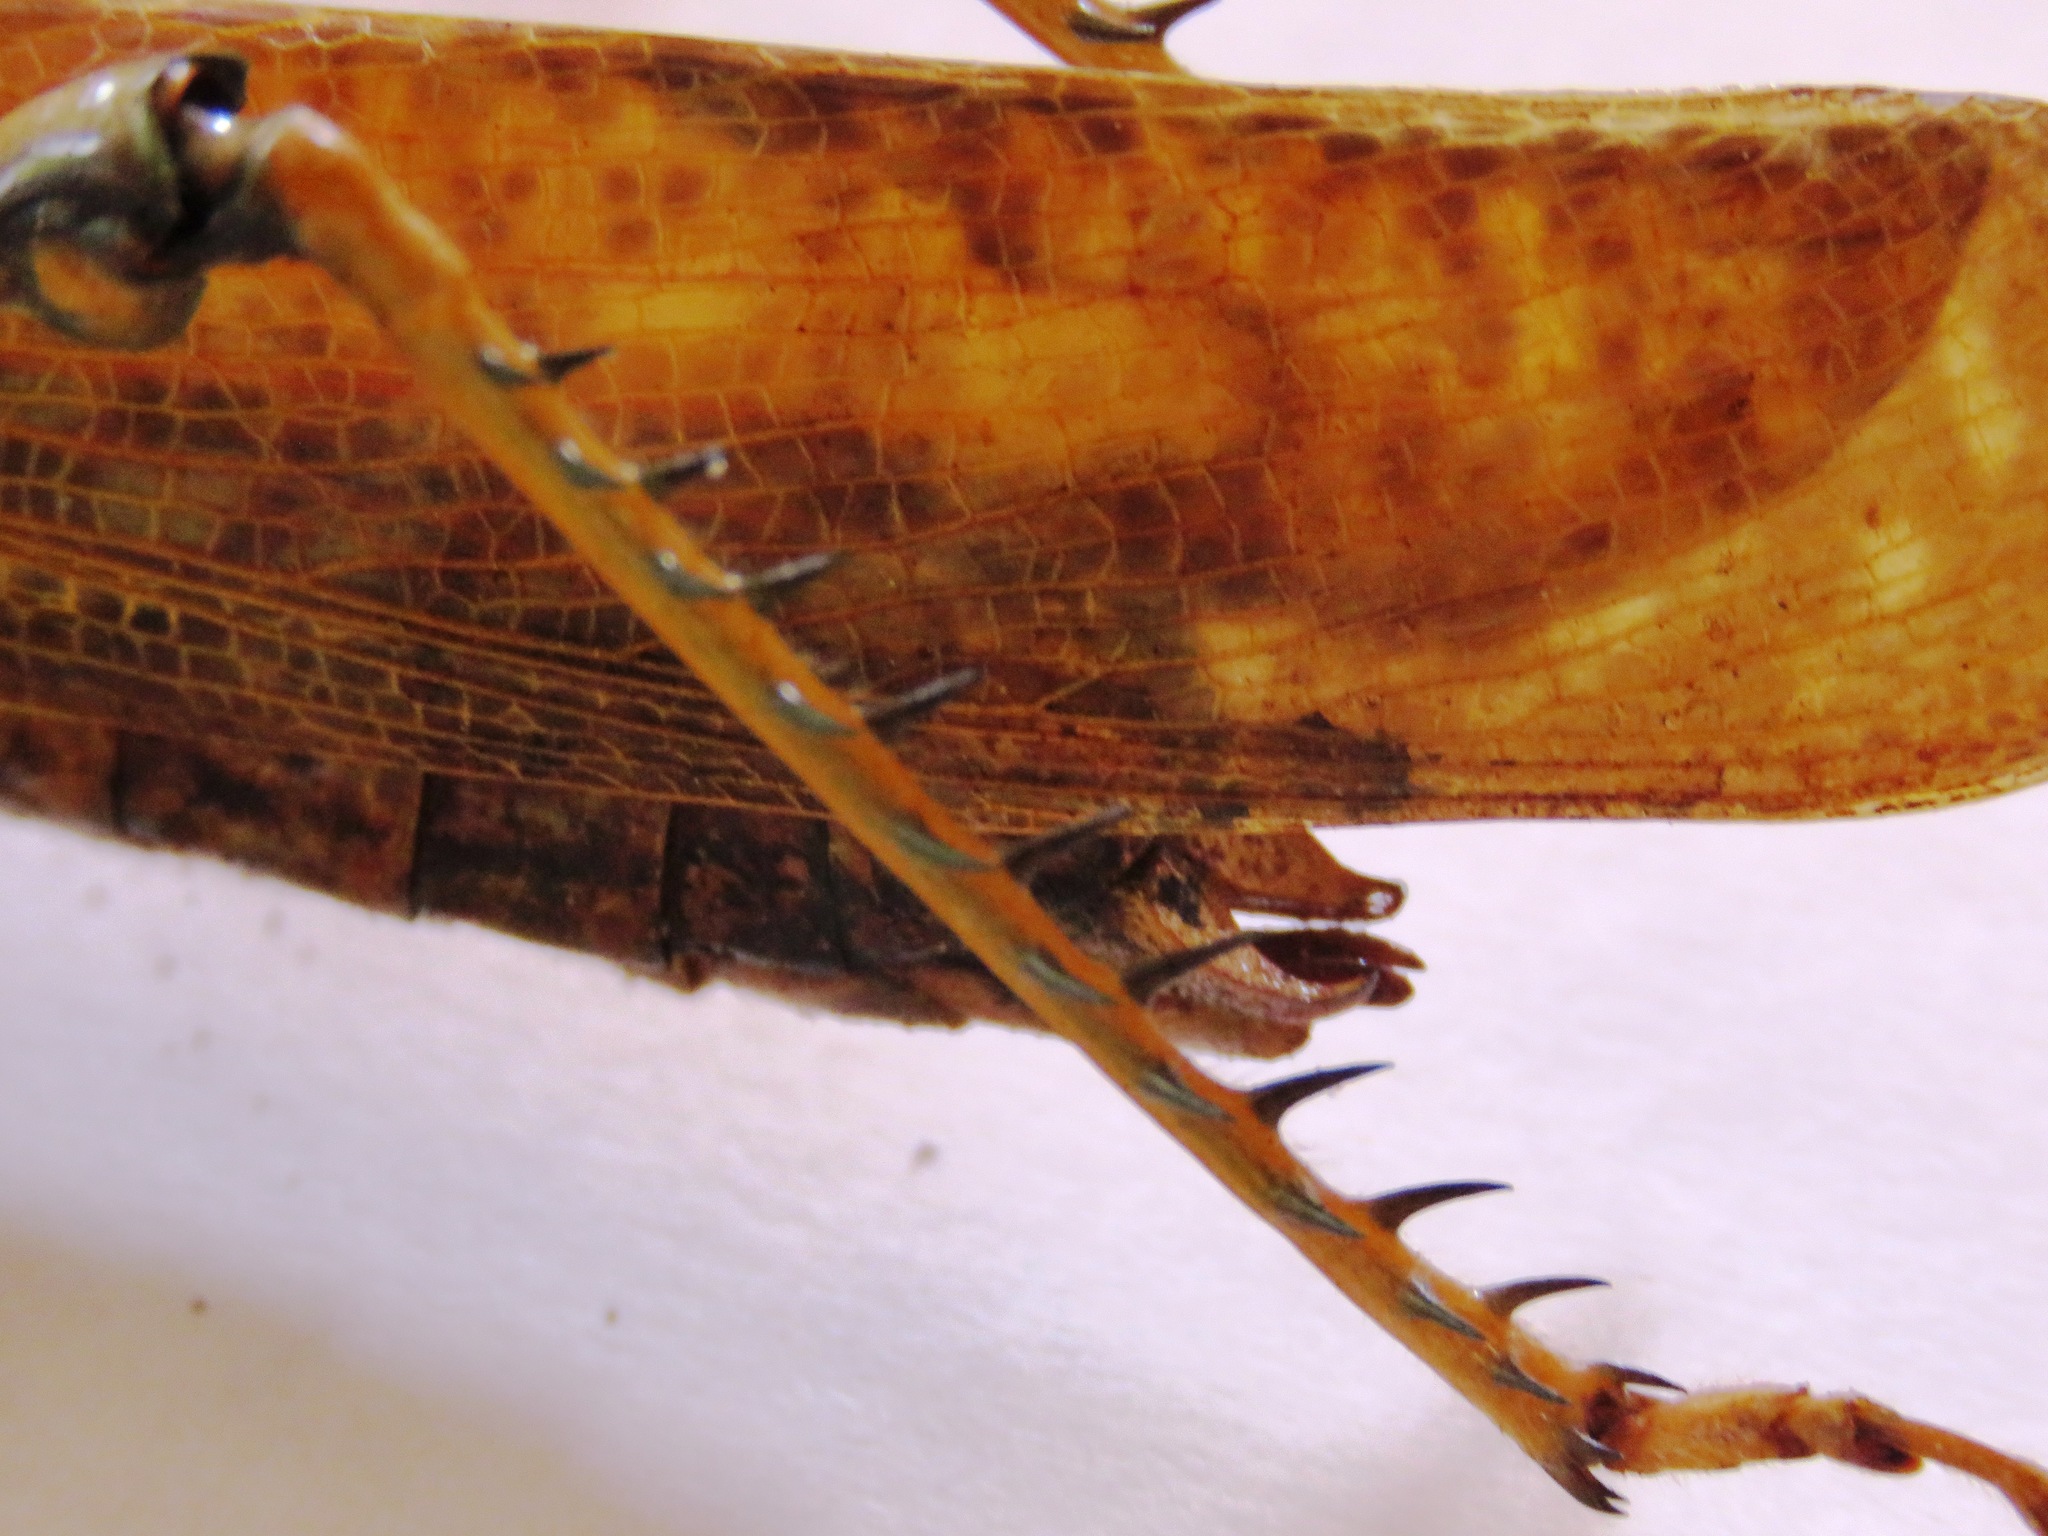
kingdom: Animalia
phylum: Arthropoda
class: Insecta
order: Orthoptera
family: Romaleidae
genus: Tropidacris
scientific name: Tropidacris cristata
